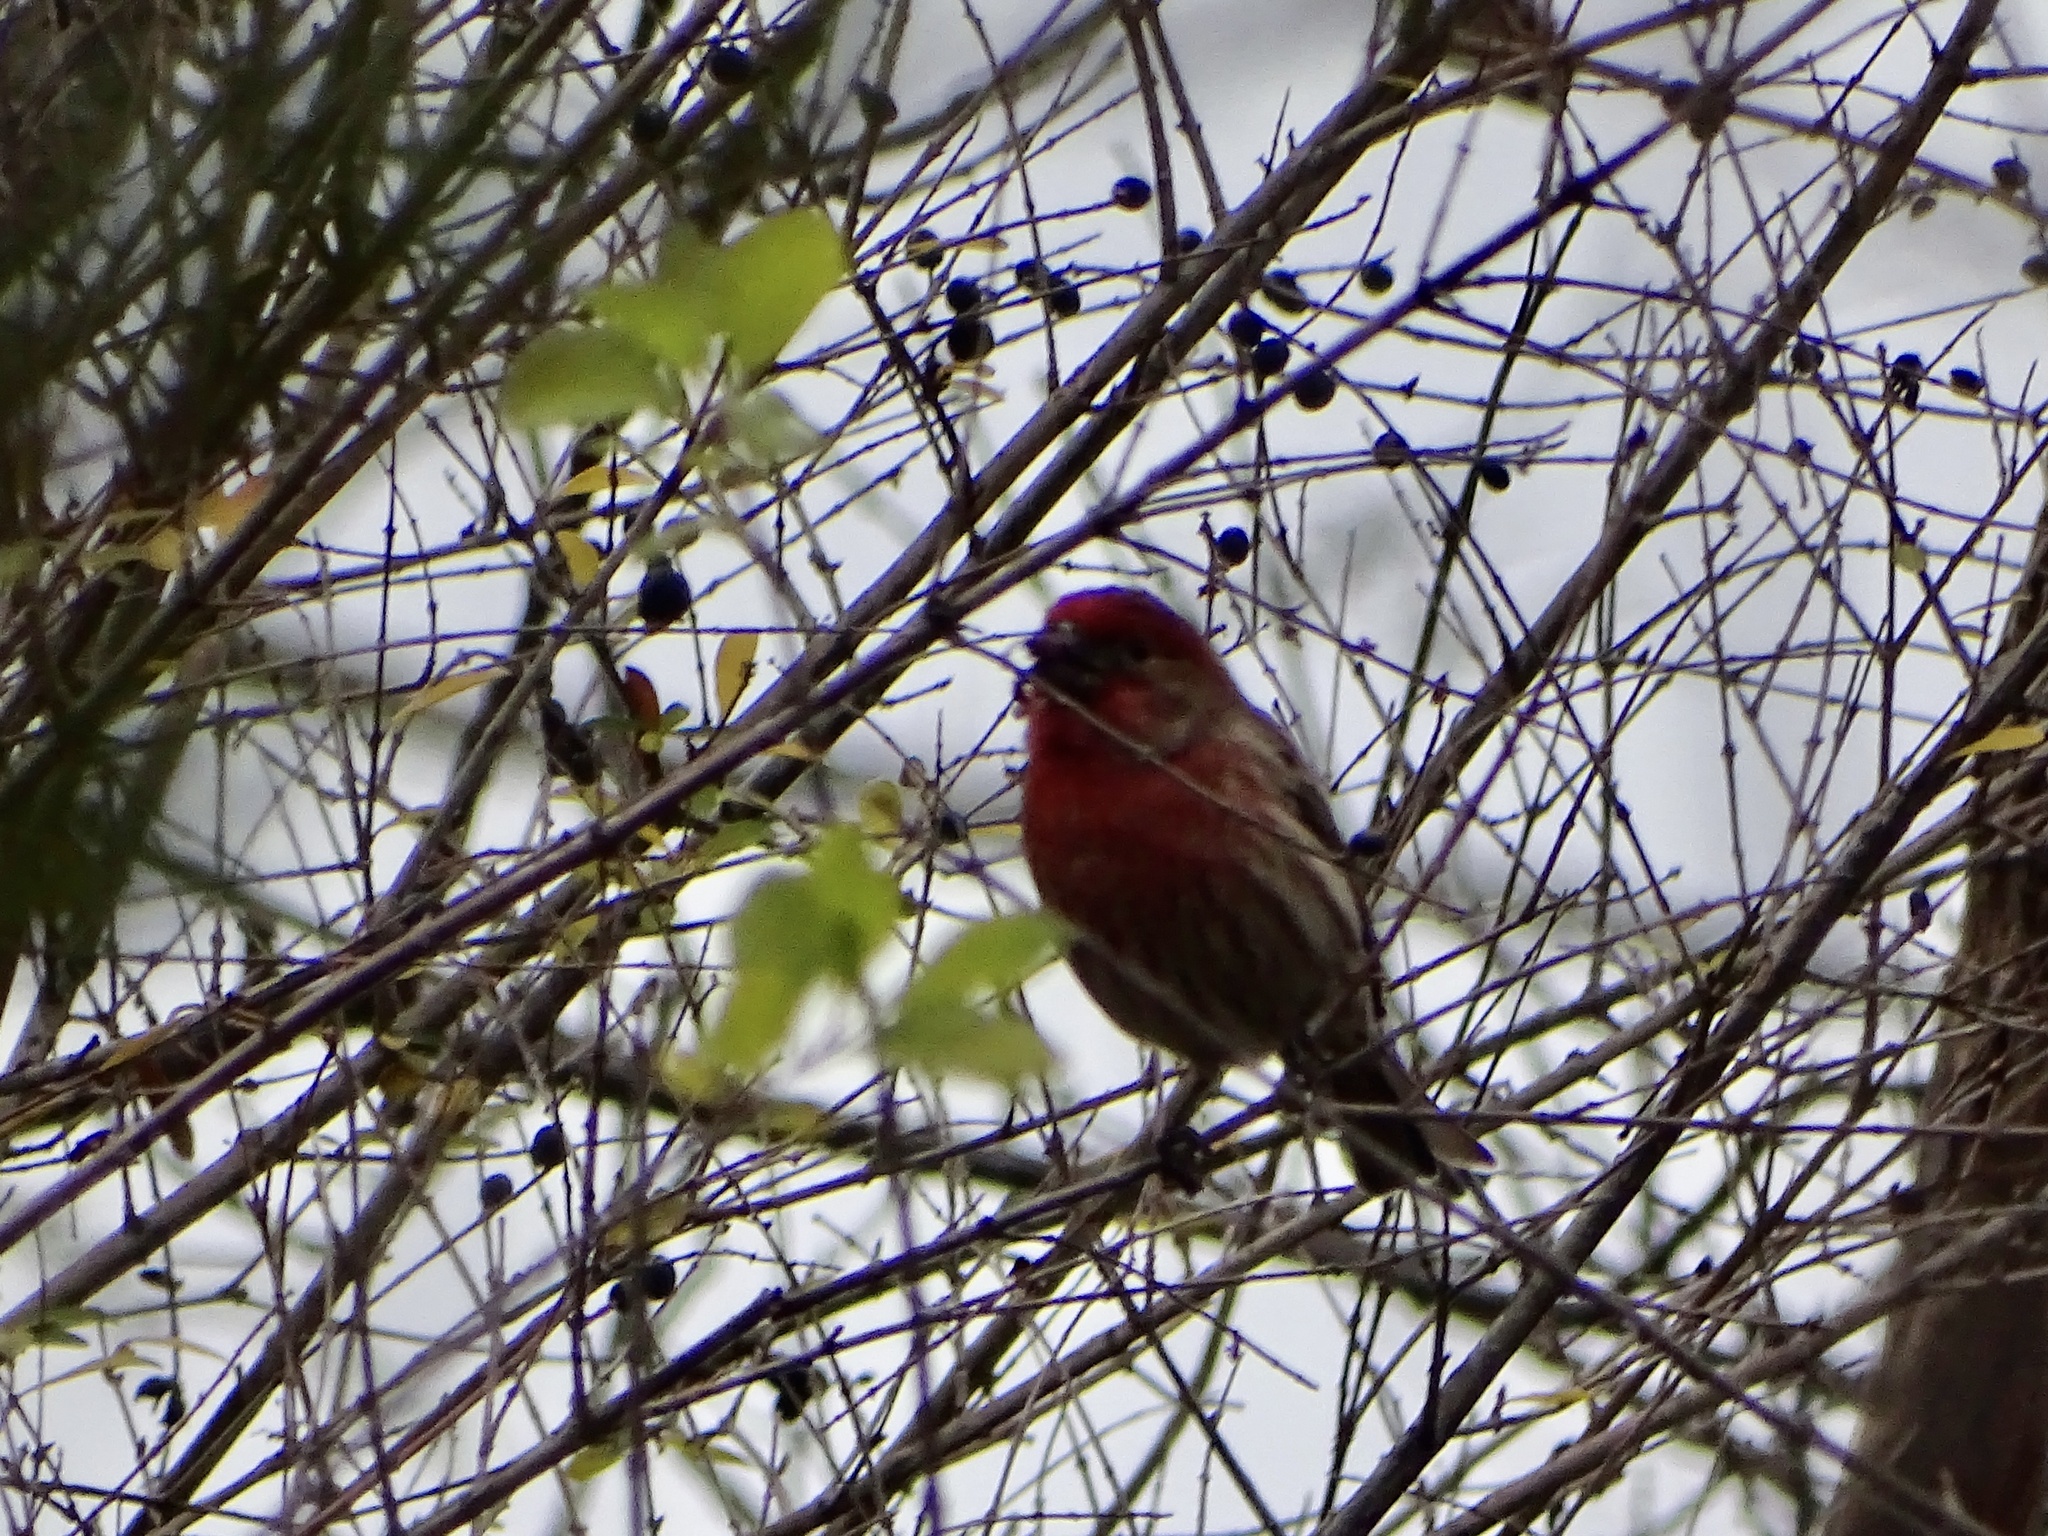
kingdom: Animalia
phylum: Chordata
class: Aves
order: Passeriformes
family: Fringillidae
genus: Haemorhous
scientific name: Haemorhous mexicanus
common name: House finch
